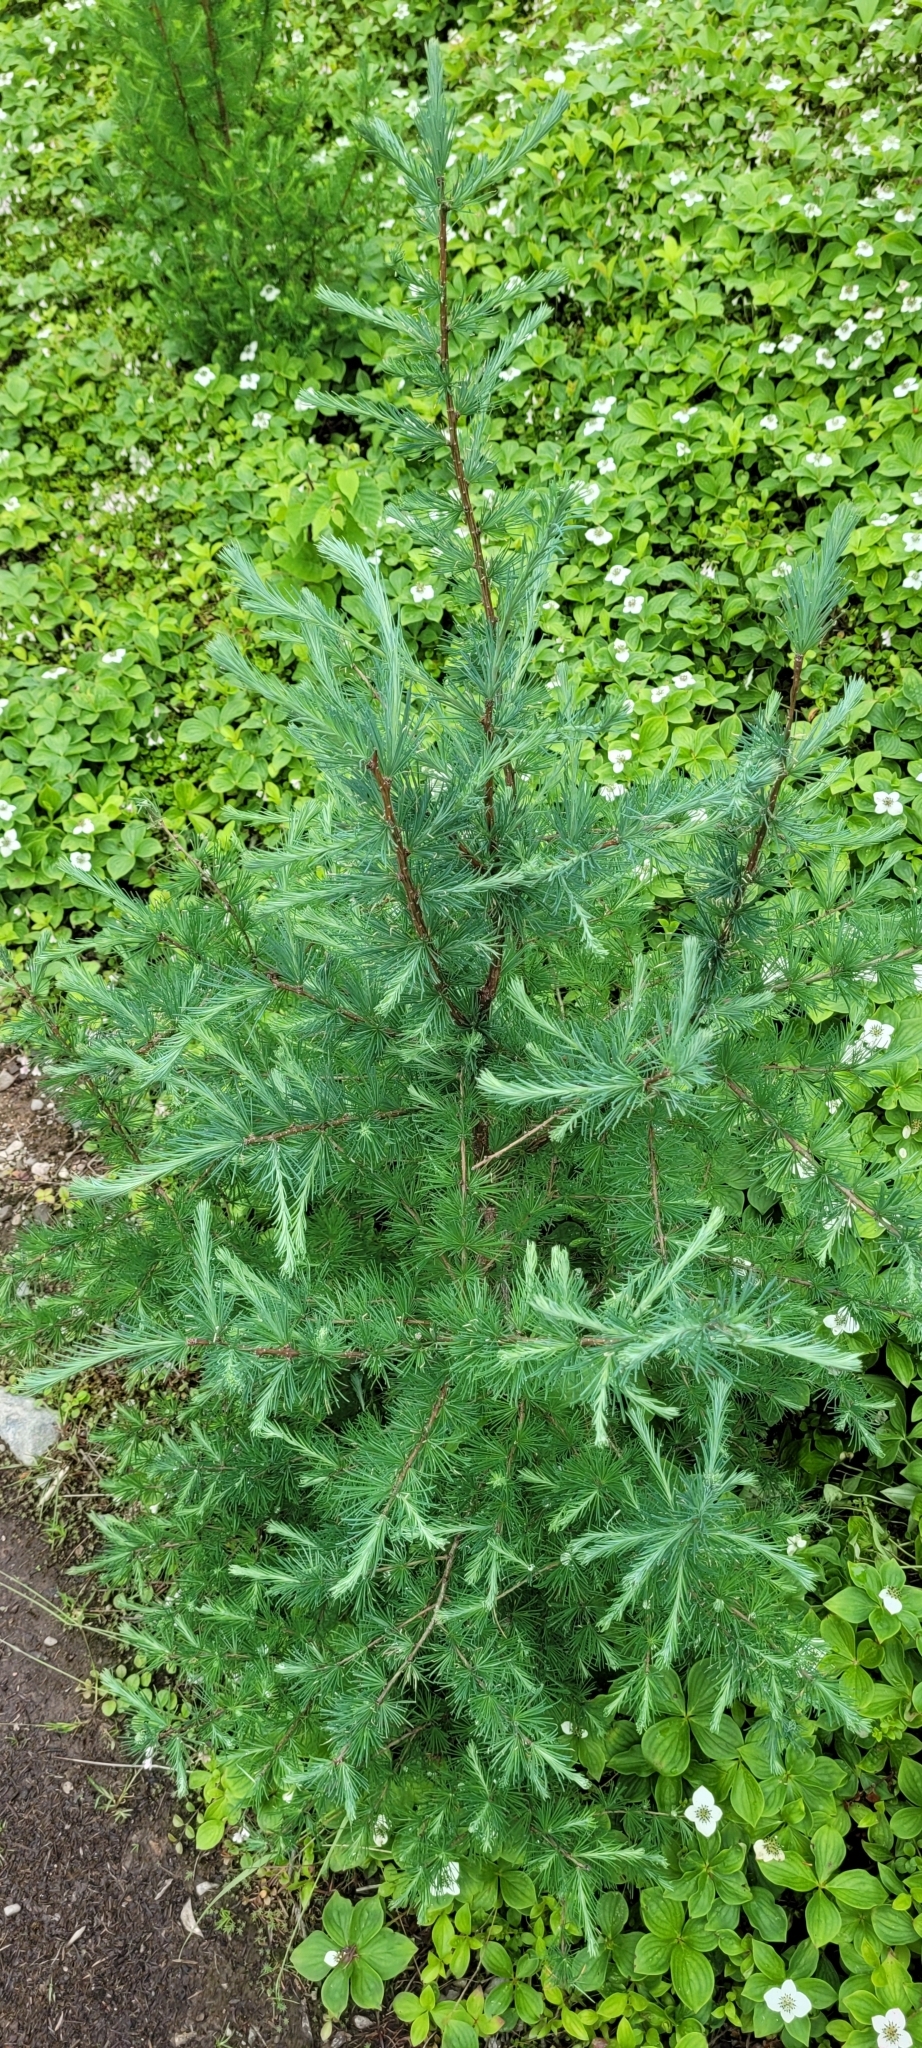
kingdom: Plantae
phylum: Tracheophyta
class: Pinopsida
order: Pinales
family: Pinaceae
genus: Larix
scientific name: Larix laricina
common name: American larch
